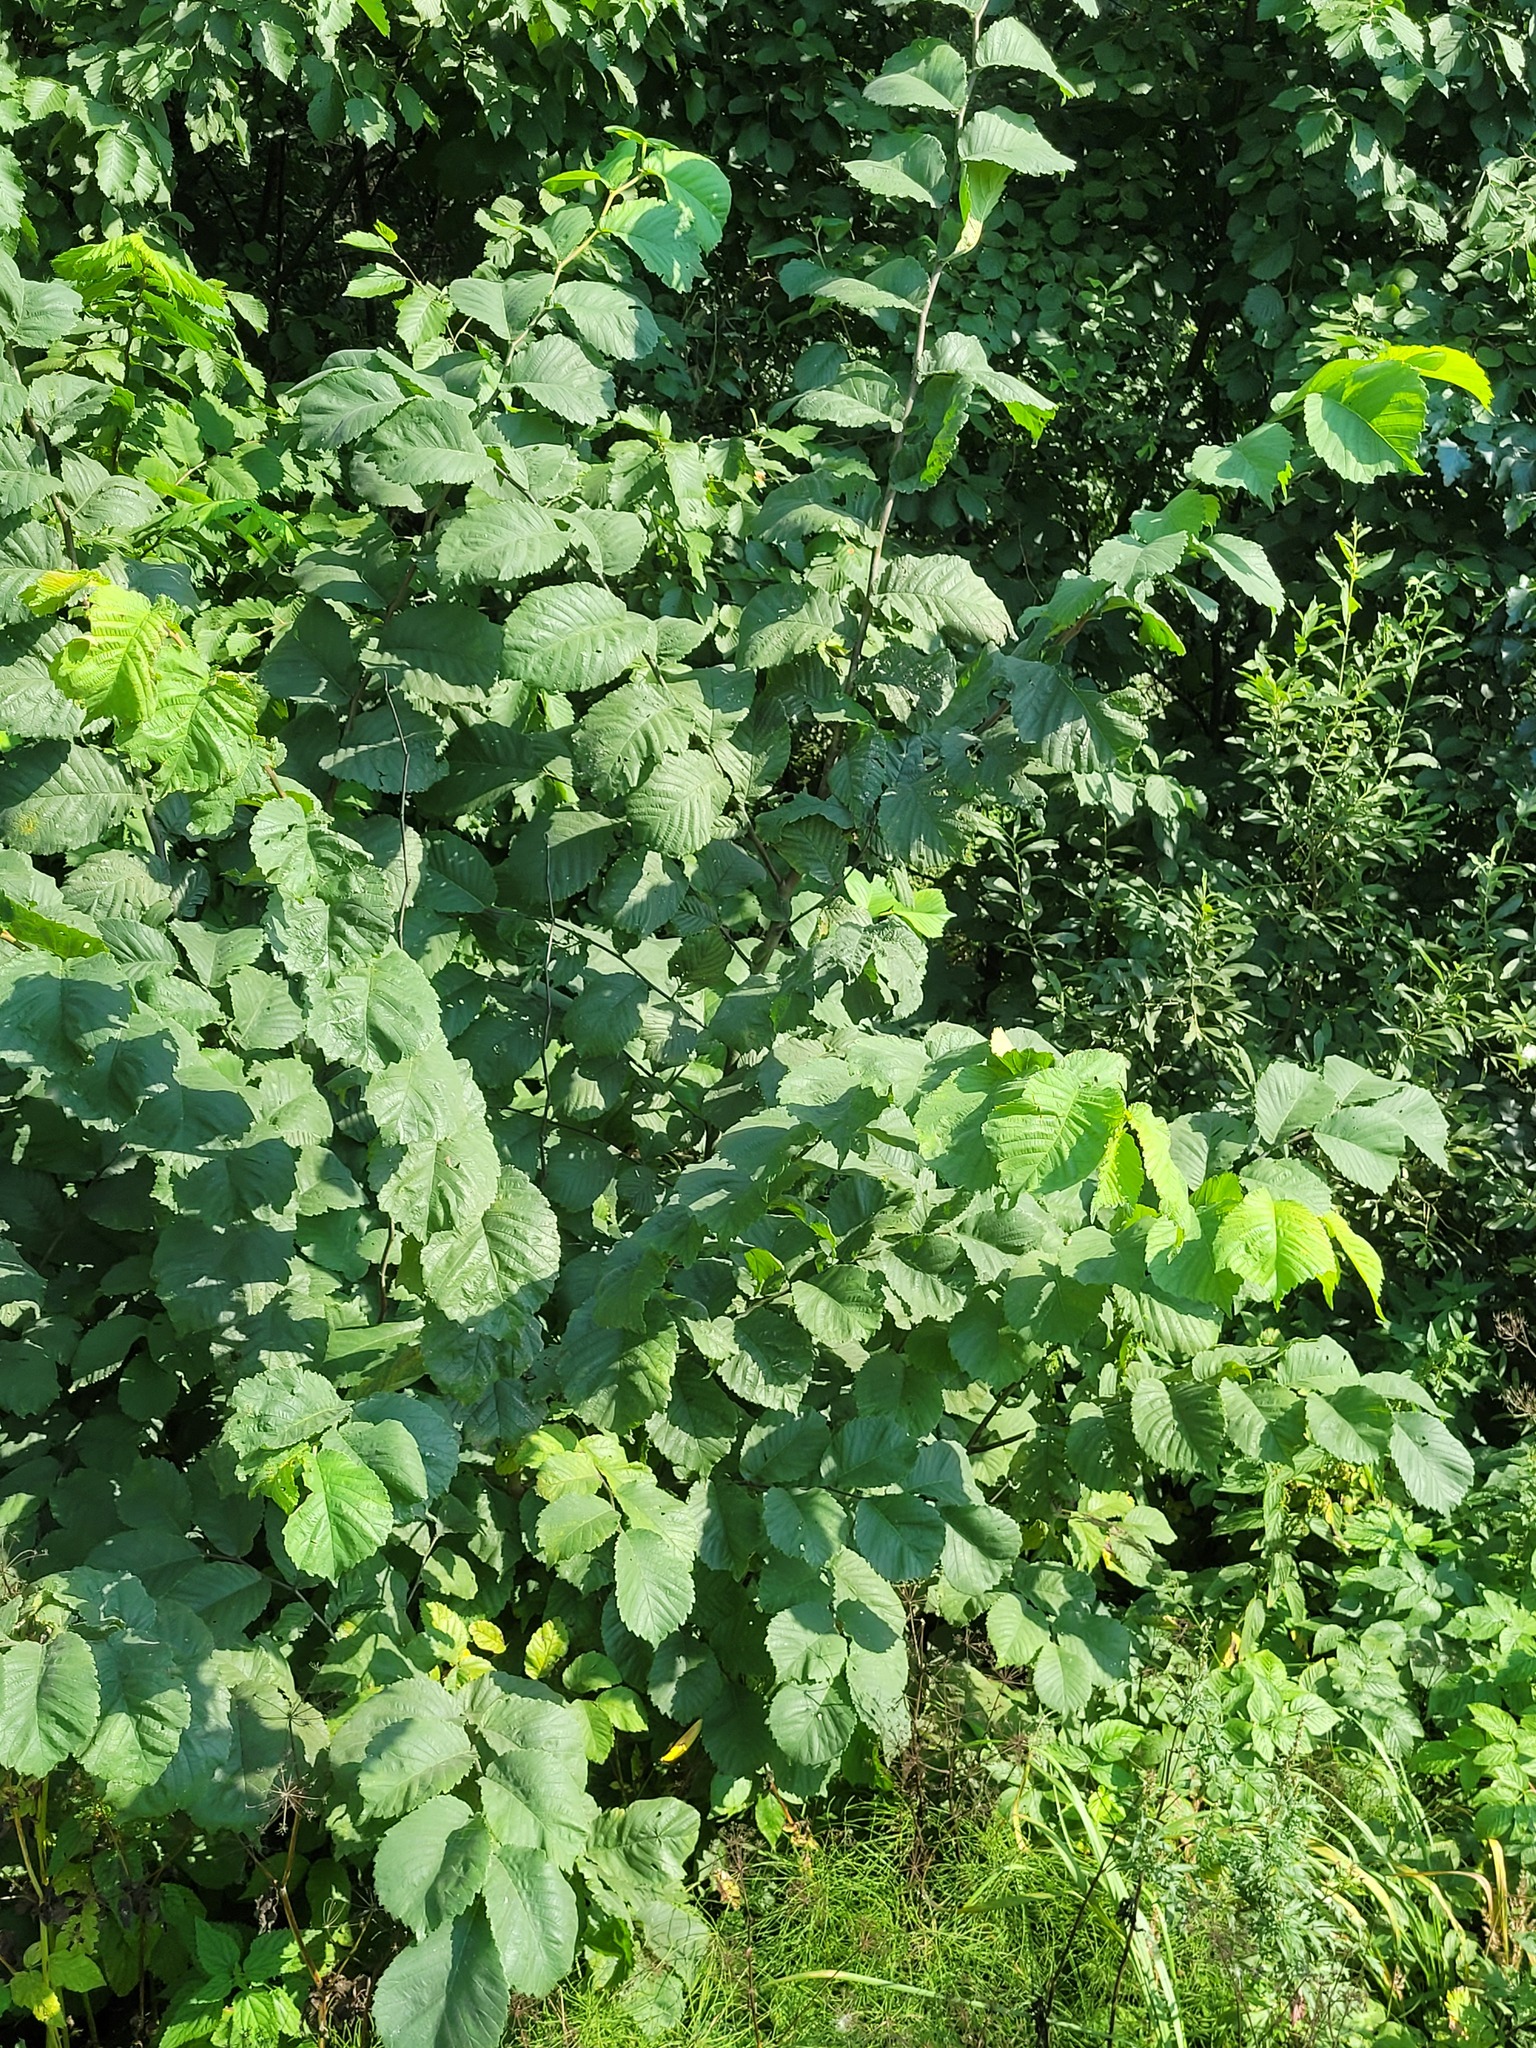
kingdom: Plantae
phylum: Tracheophyta
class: Magnoliopsida
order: Rosales
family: Ulmaceae
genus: Ulmus
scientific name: Ulmus glabra
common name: Wych elm
